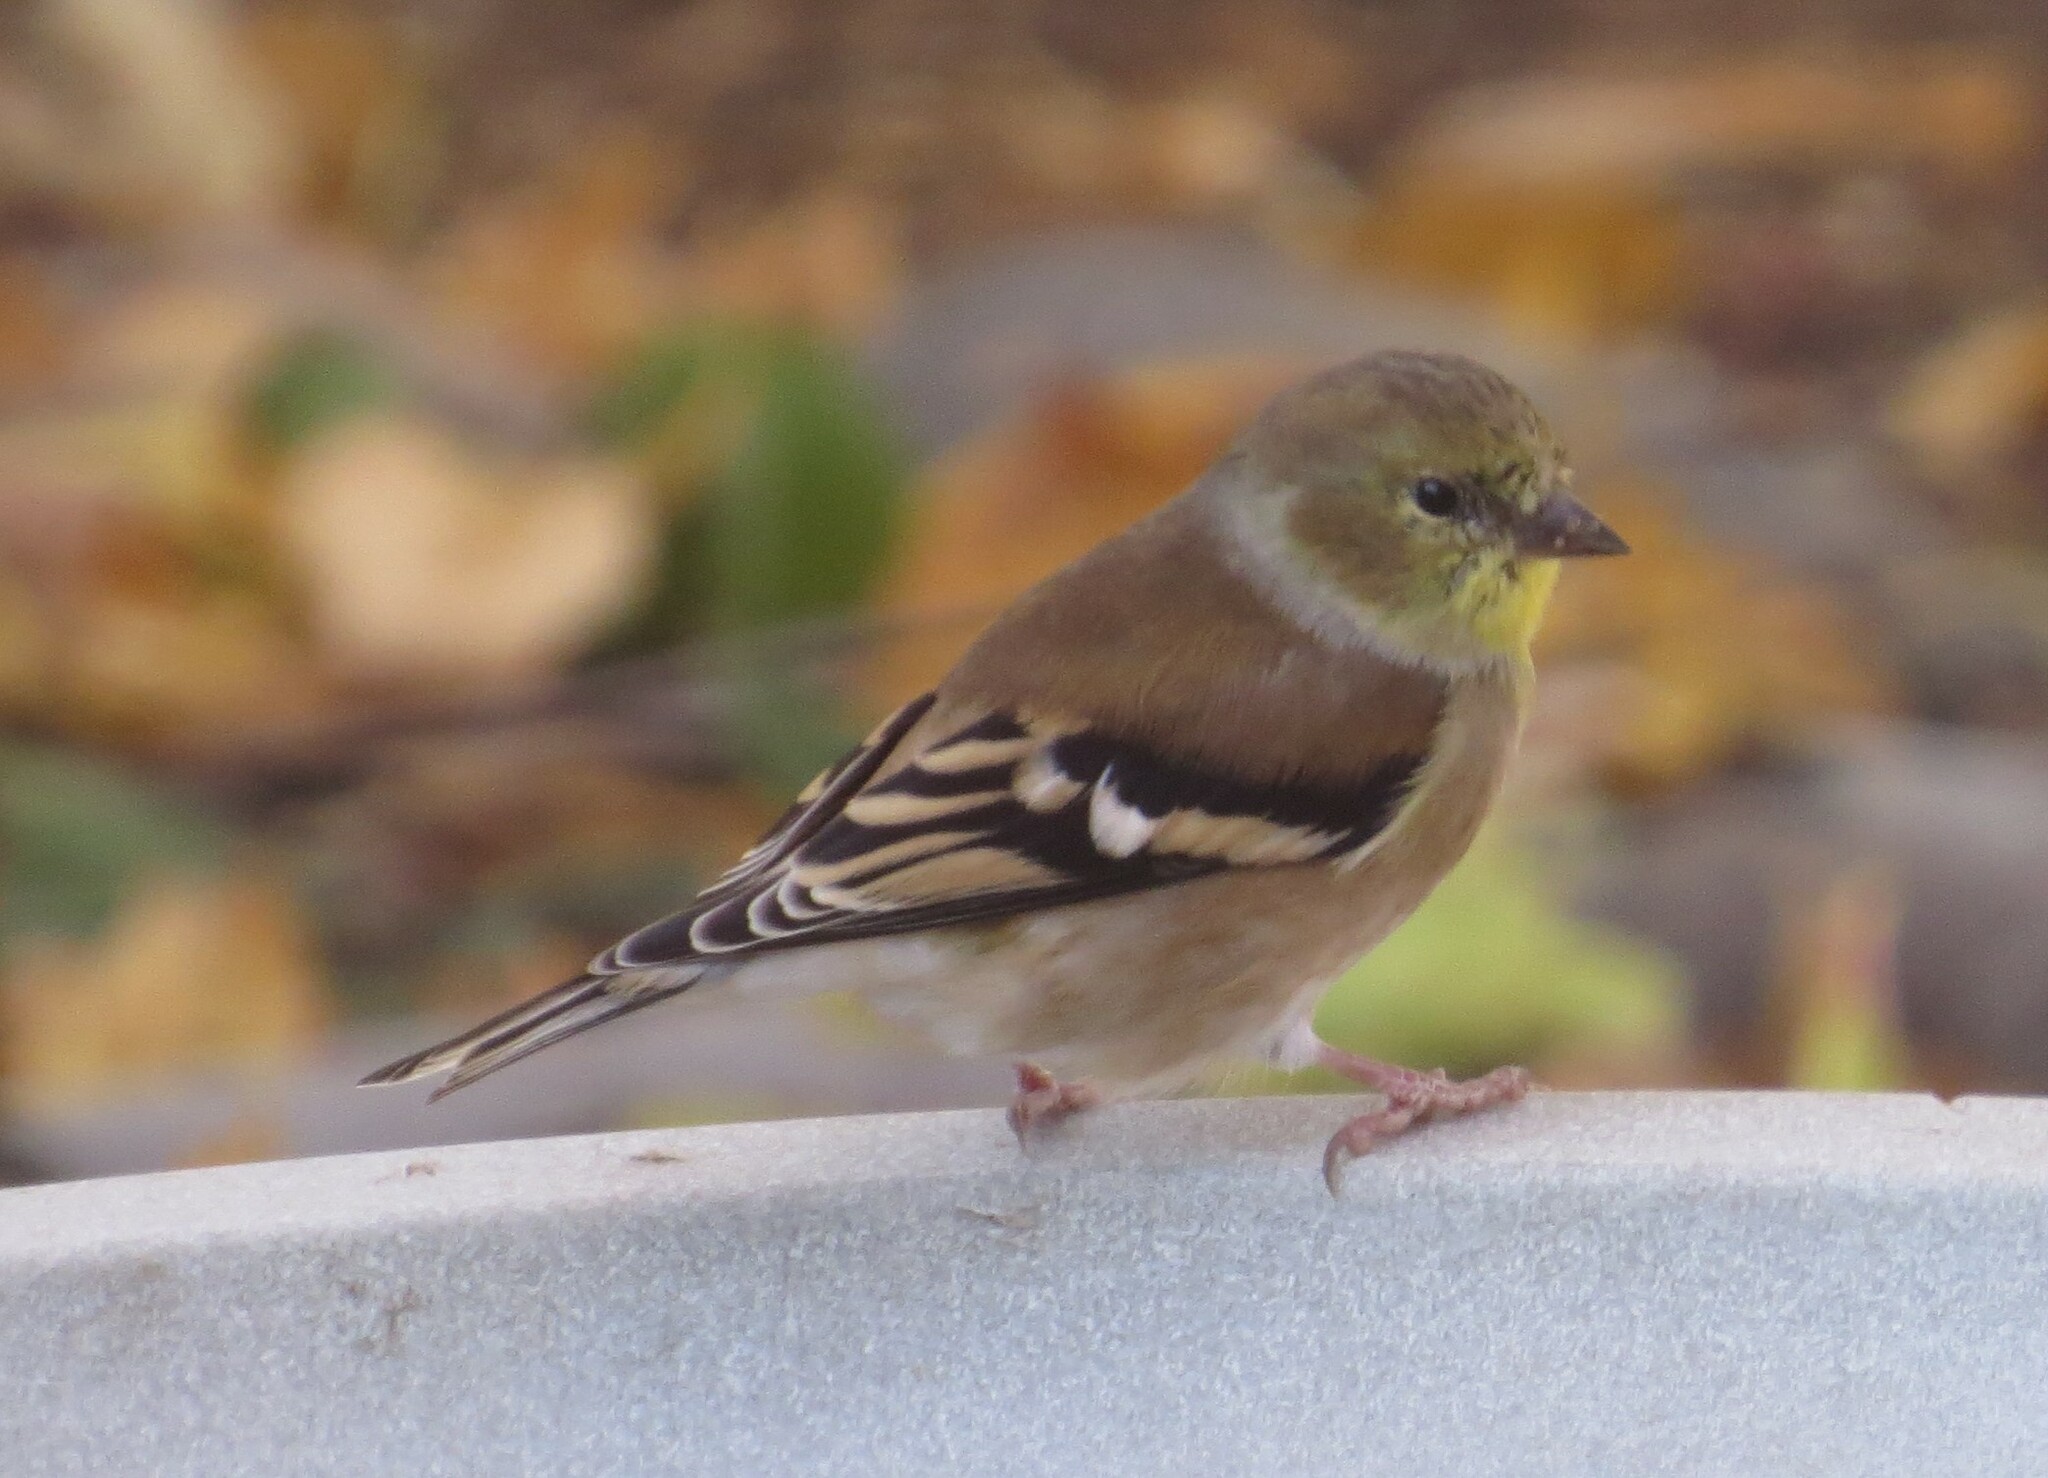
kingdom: Animalia
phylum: Chordata
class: Aves
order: Passeriformes
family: Fringillidae
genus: Spinus
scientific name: Spinus tristis
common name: American goldfinch
